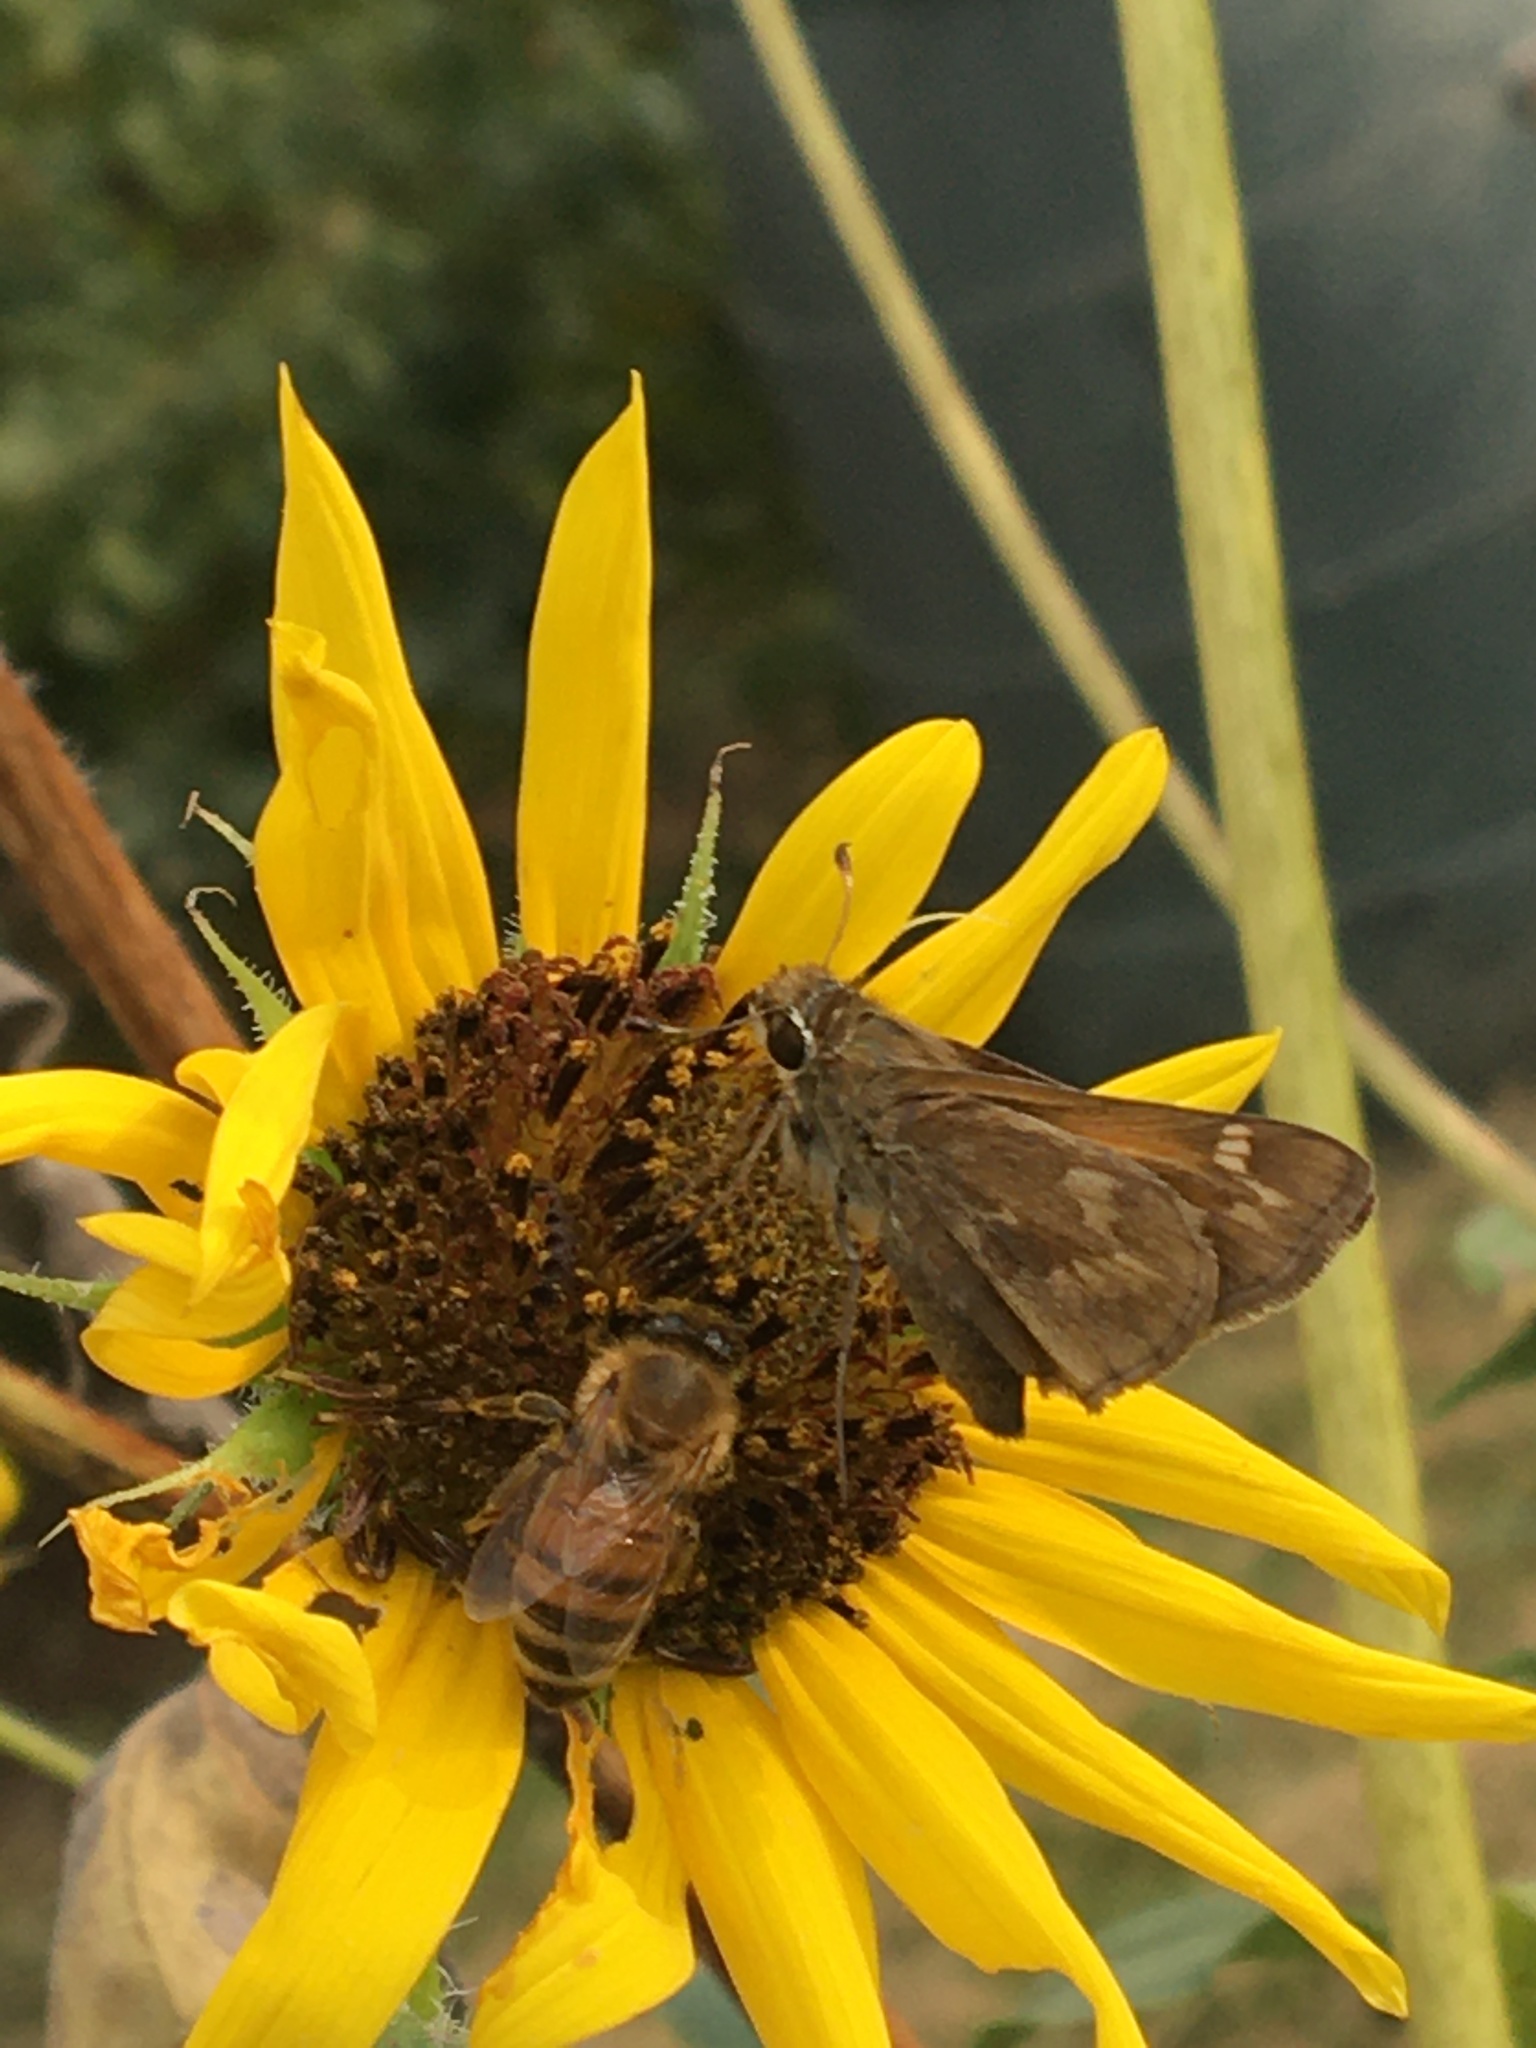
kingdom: Animalia
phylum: Arthropoda
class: Insecta
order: Hymenoptera
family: Apidae
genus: Apis
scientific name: Apis mellifera
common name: Honey bee
